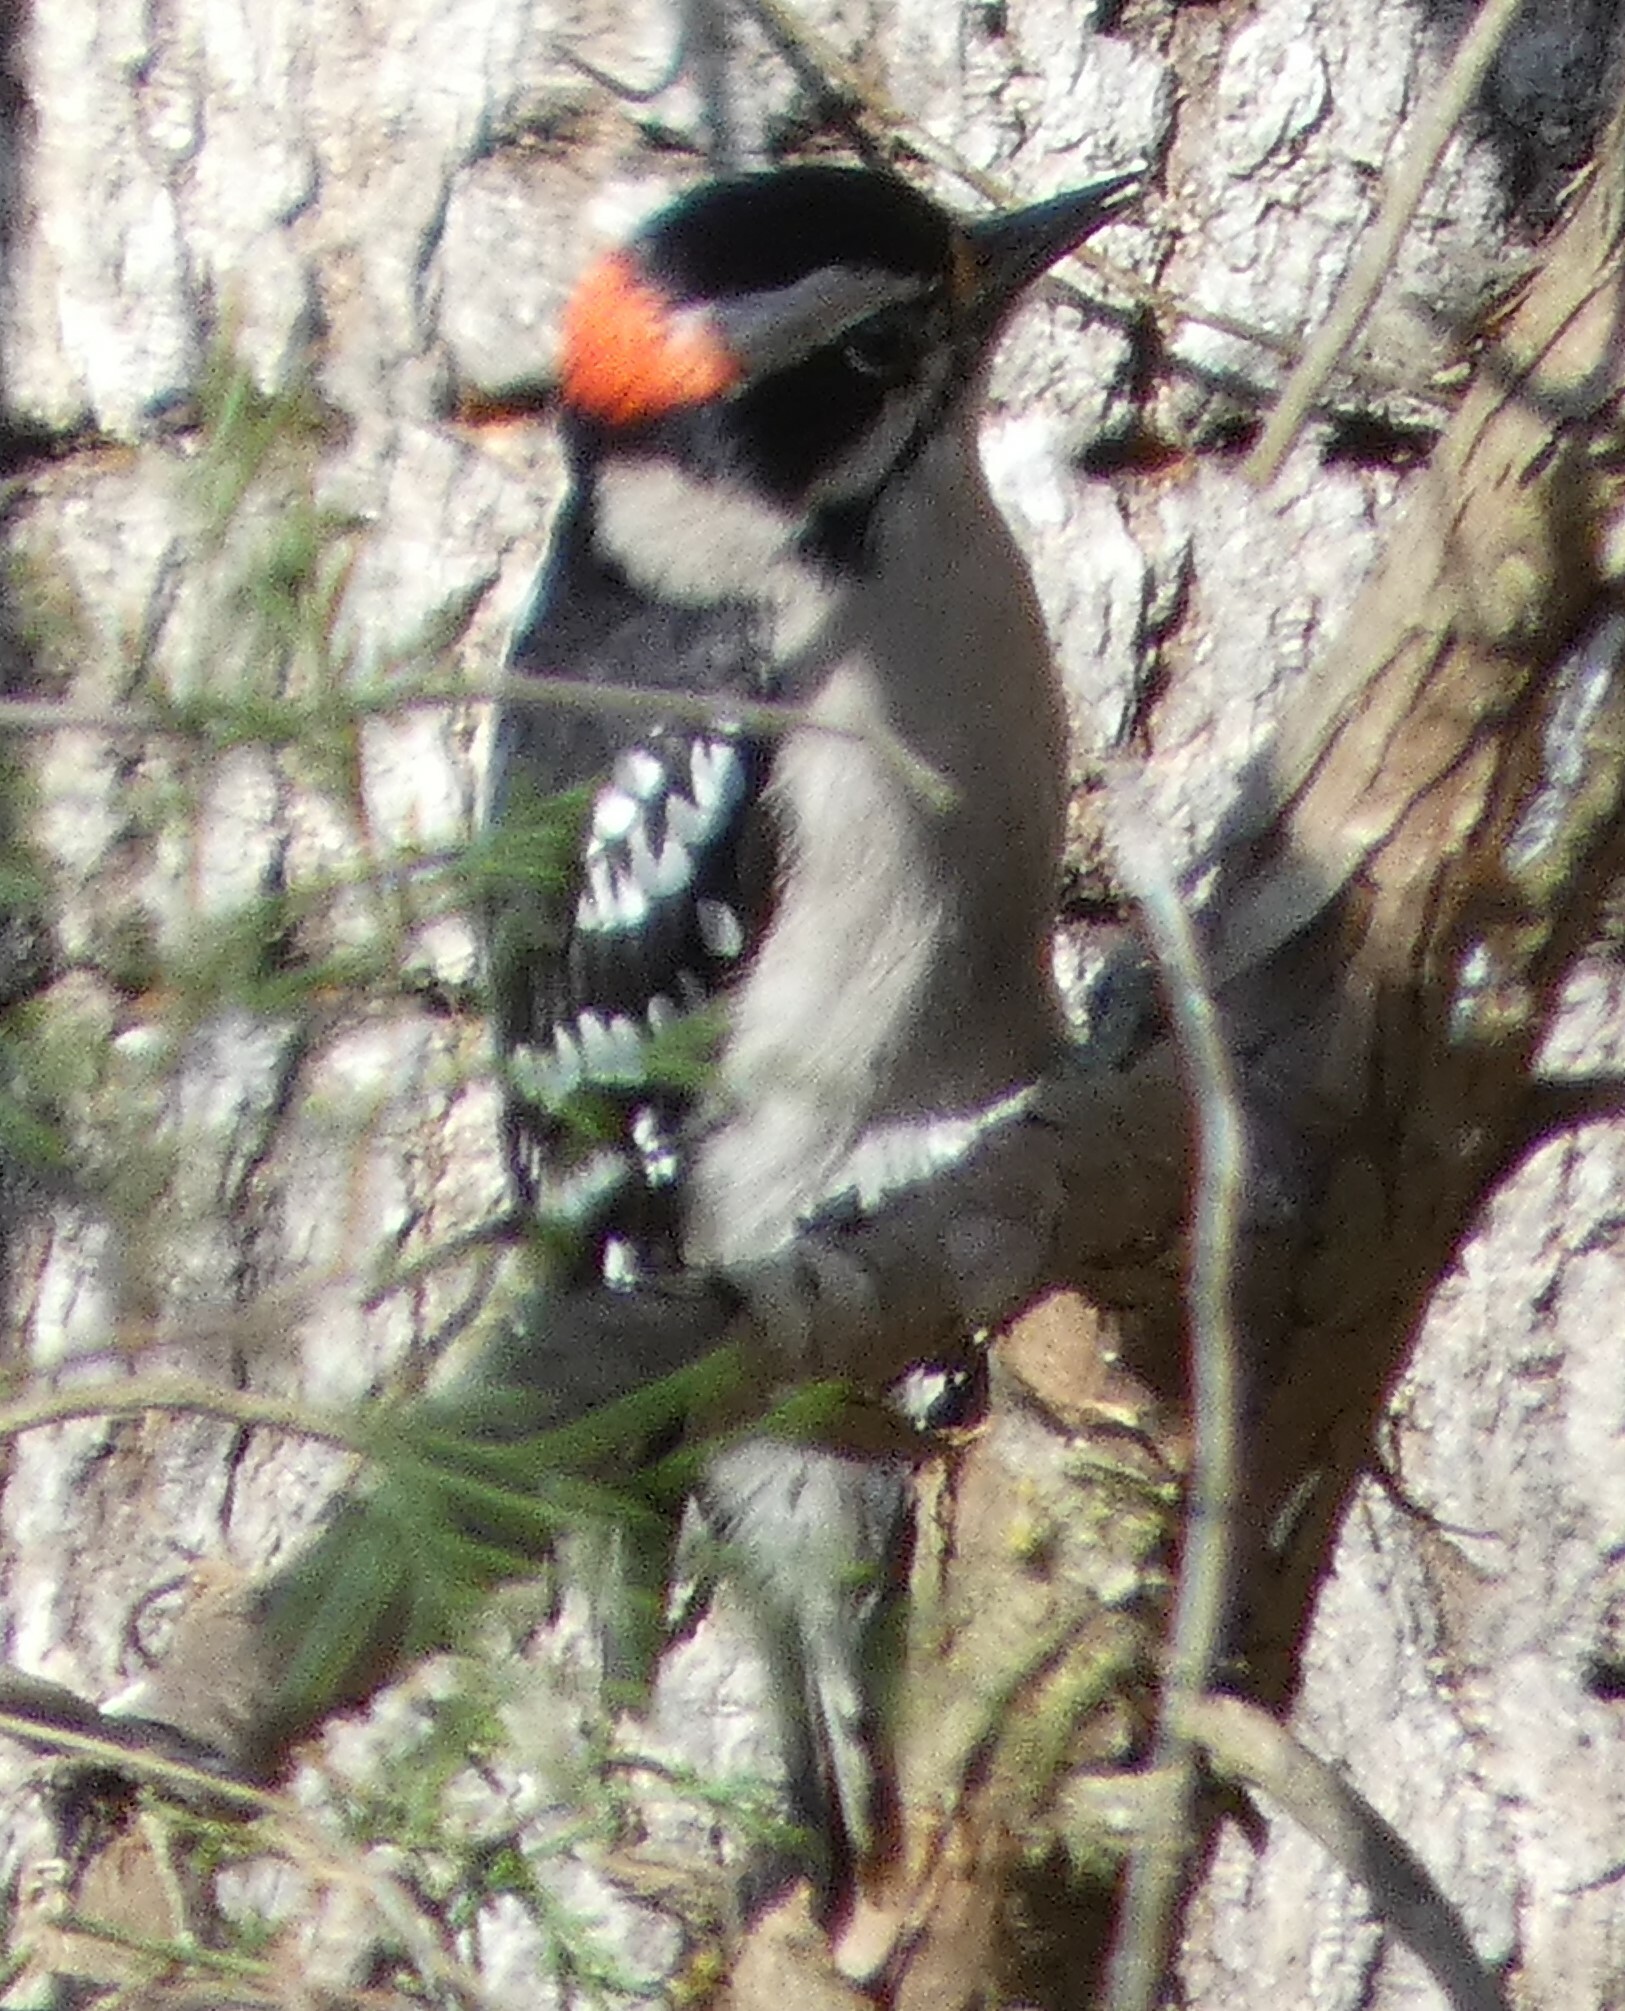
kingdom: Animalia
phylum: Chordata
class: Aves
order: Piciformes
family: Picidae
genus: Dryobates
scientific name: Dryobates pubescens
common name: Downy woodpecker
